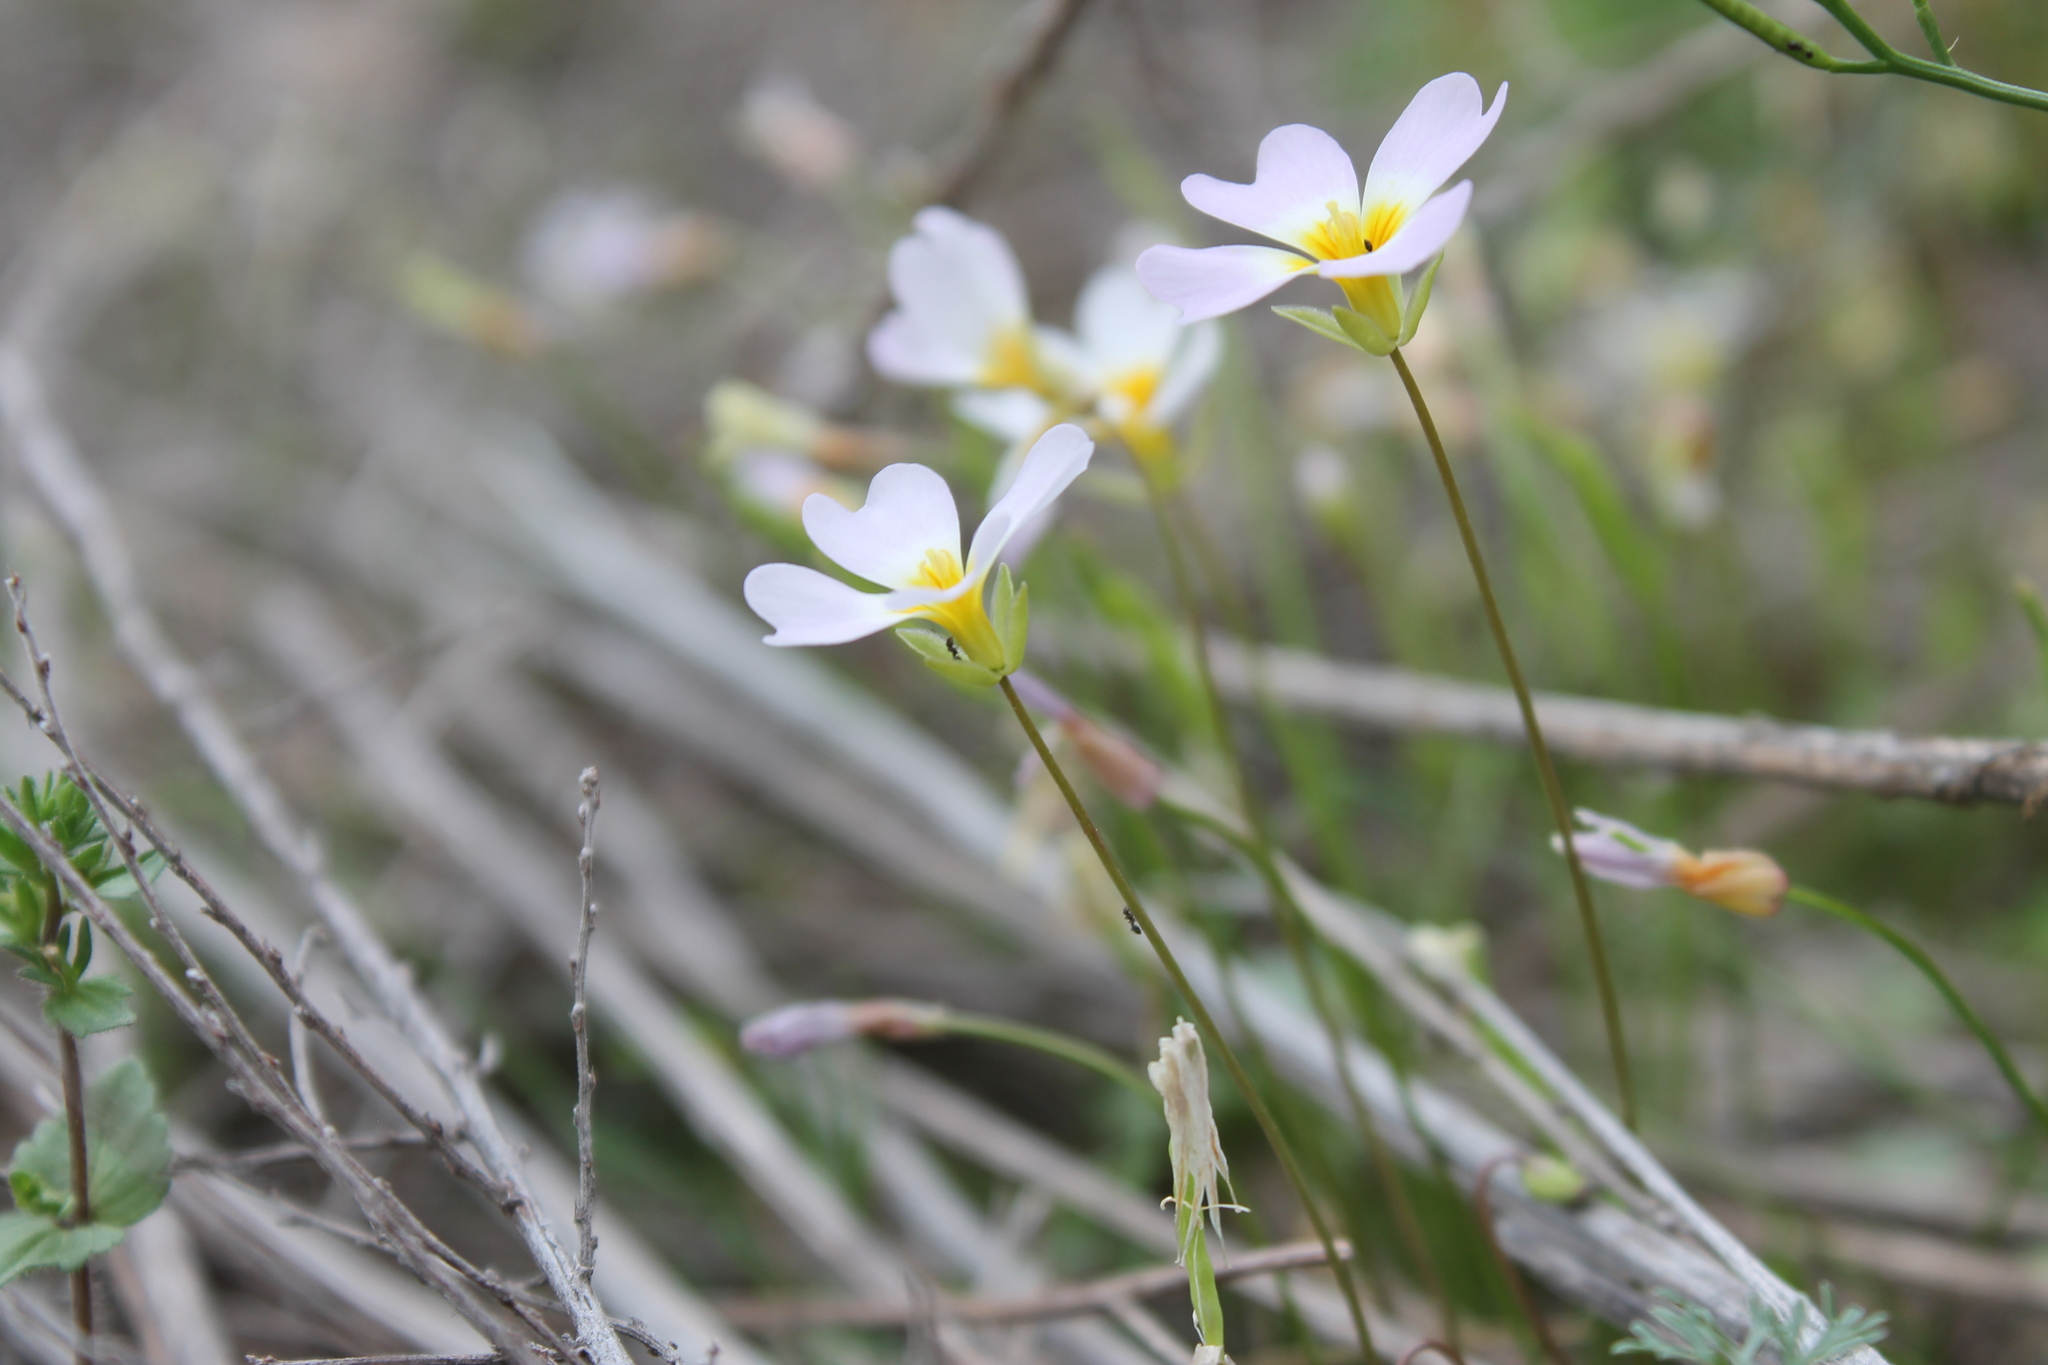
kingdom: Plantae
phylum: Tracheophyta
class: Magnoliopsida
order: Brassicales
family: Brassicaceae
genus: Leavenworthia
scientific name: Leavenworthia stylosa
